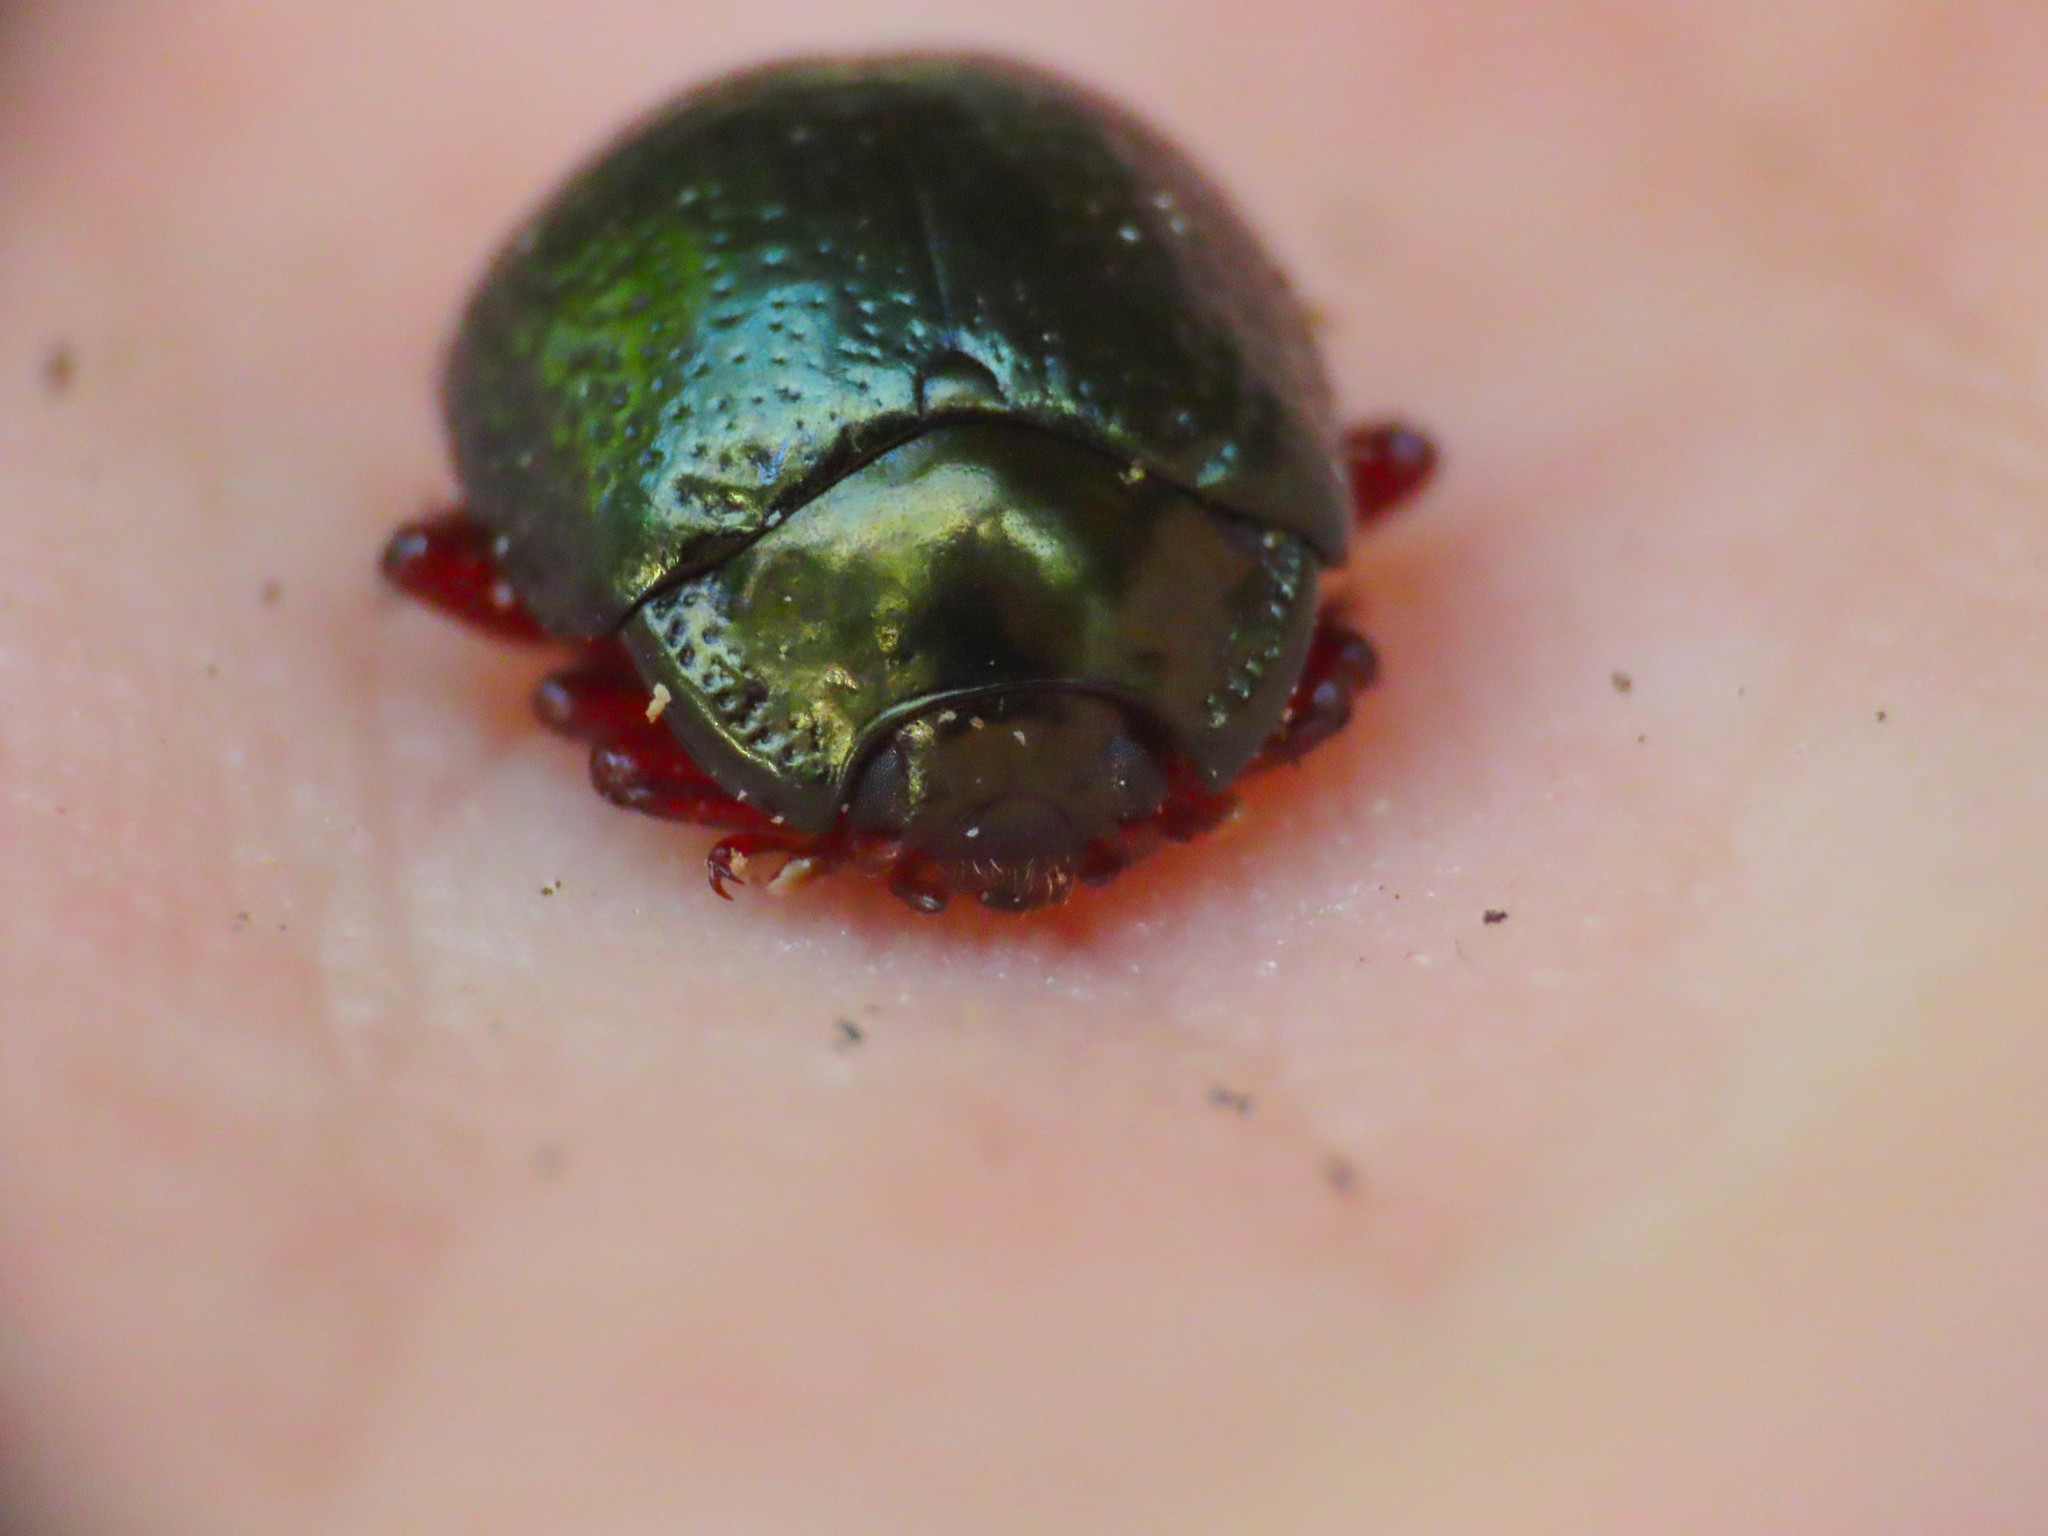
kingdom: Animalia
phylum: Arthropoda
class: Insecta
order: Coleoptera
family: Chrysomelidae
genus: Chrysolina
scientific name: Chrysolina bankii
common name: Leaf beetle
